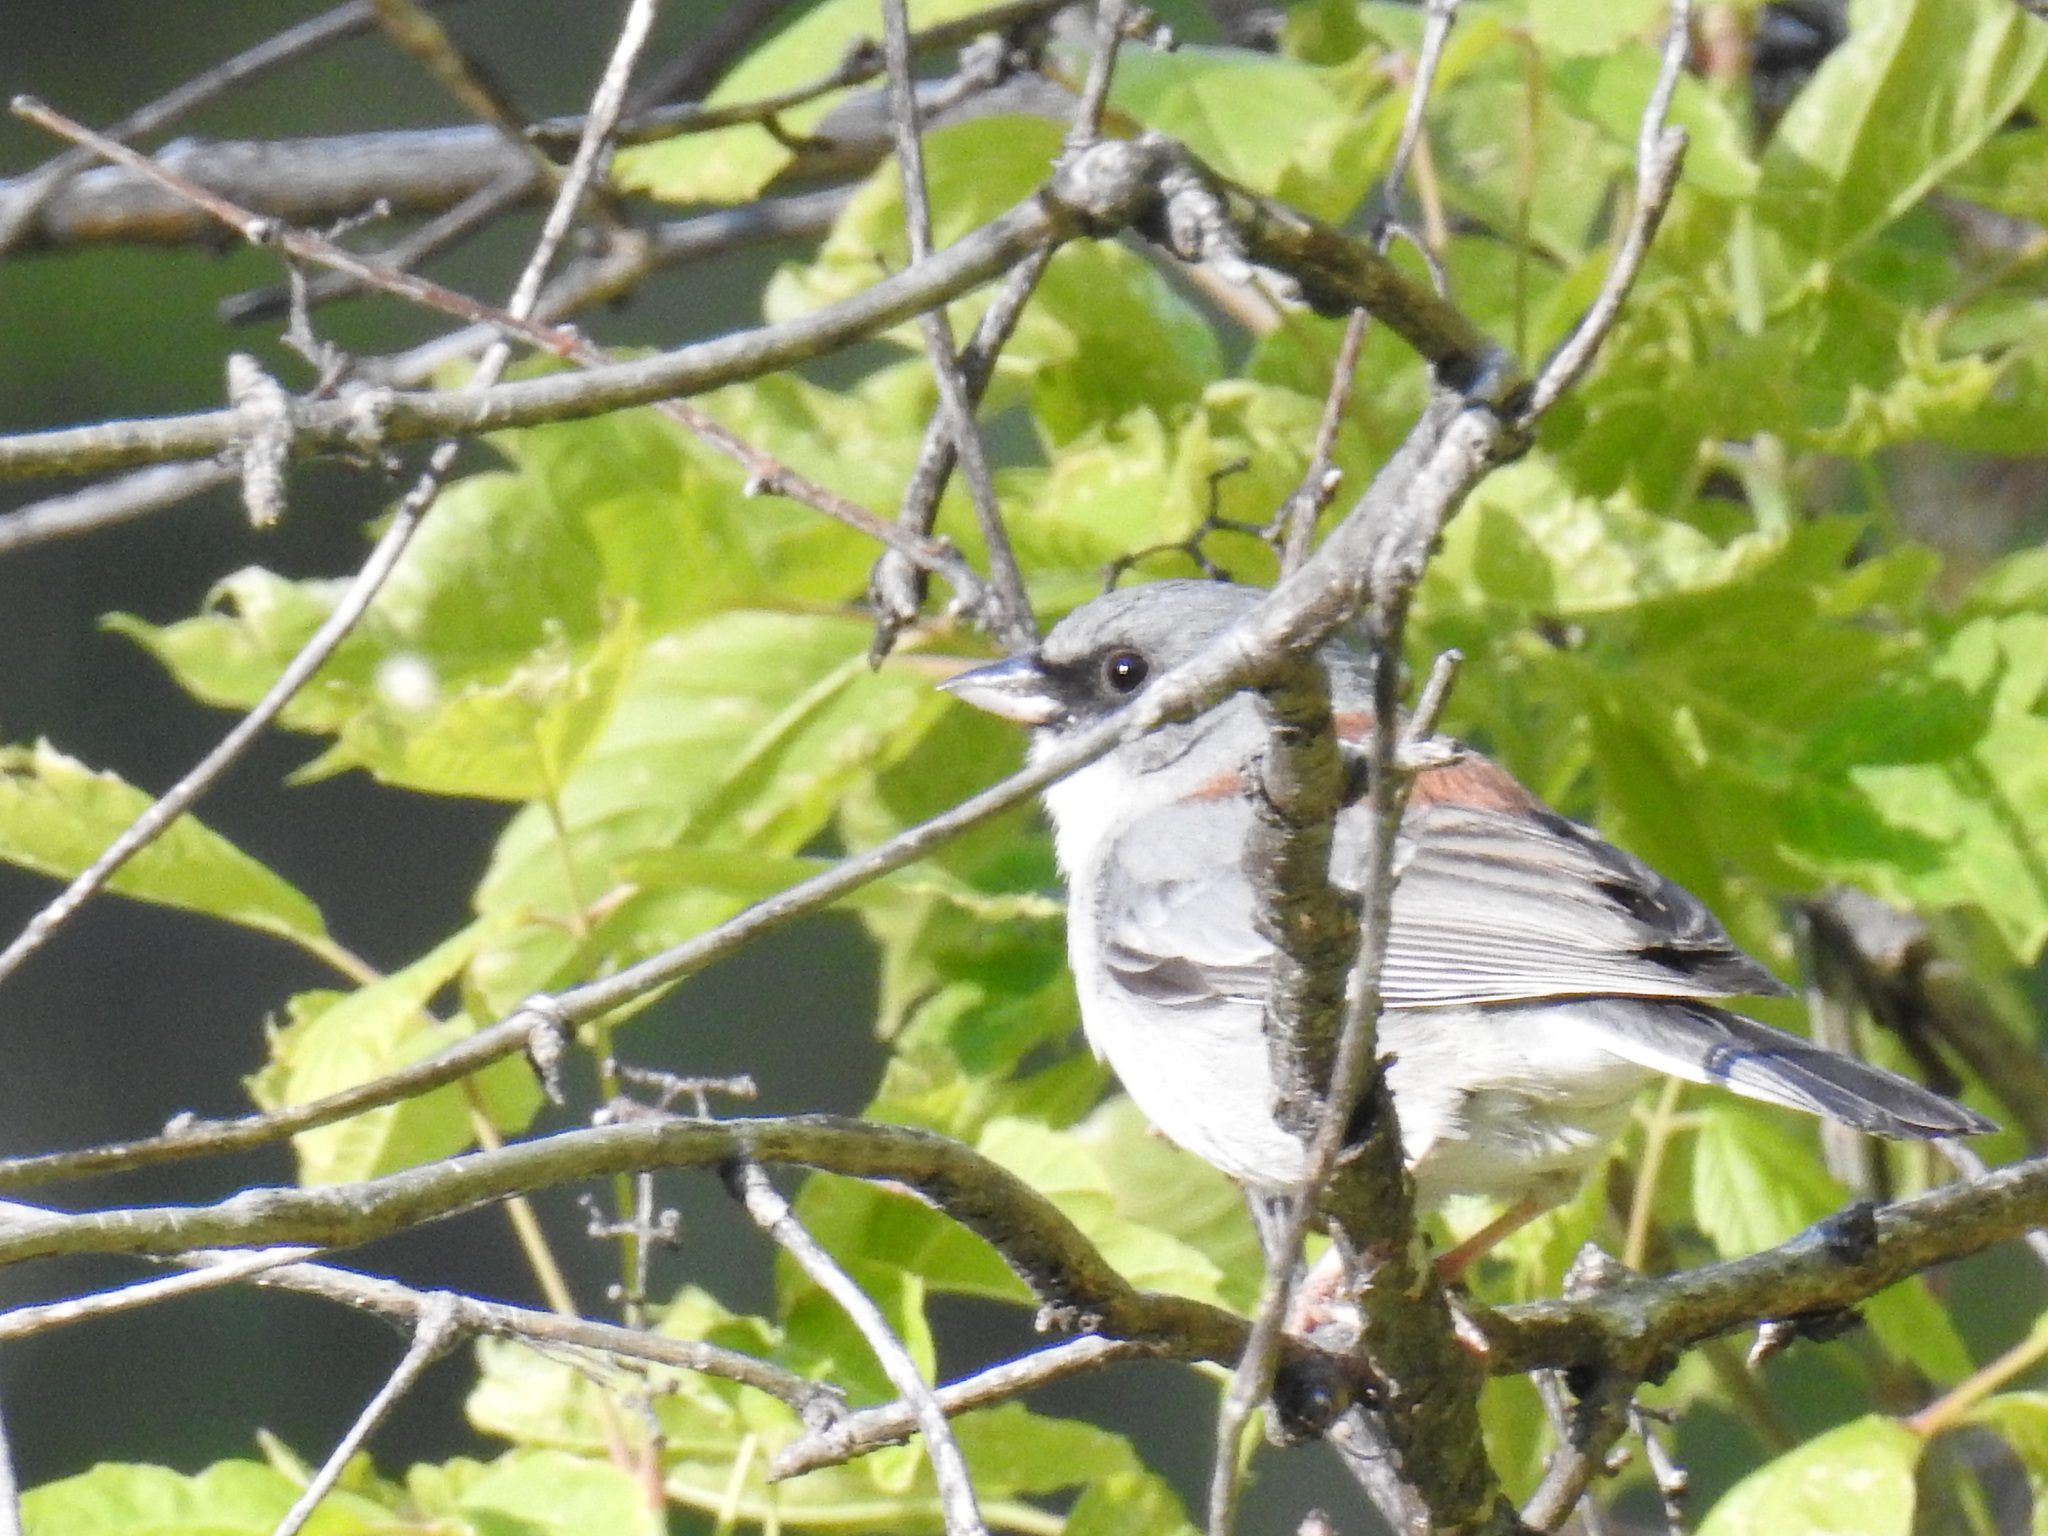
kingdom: Animalia
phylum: Chordata
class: Aves
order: Passeriformes
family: Passerellidae
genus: Junco
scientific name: Junco hyemalis
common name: Dark-eyed junco
